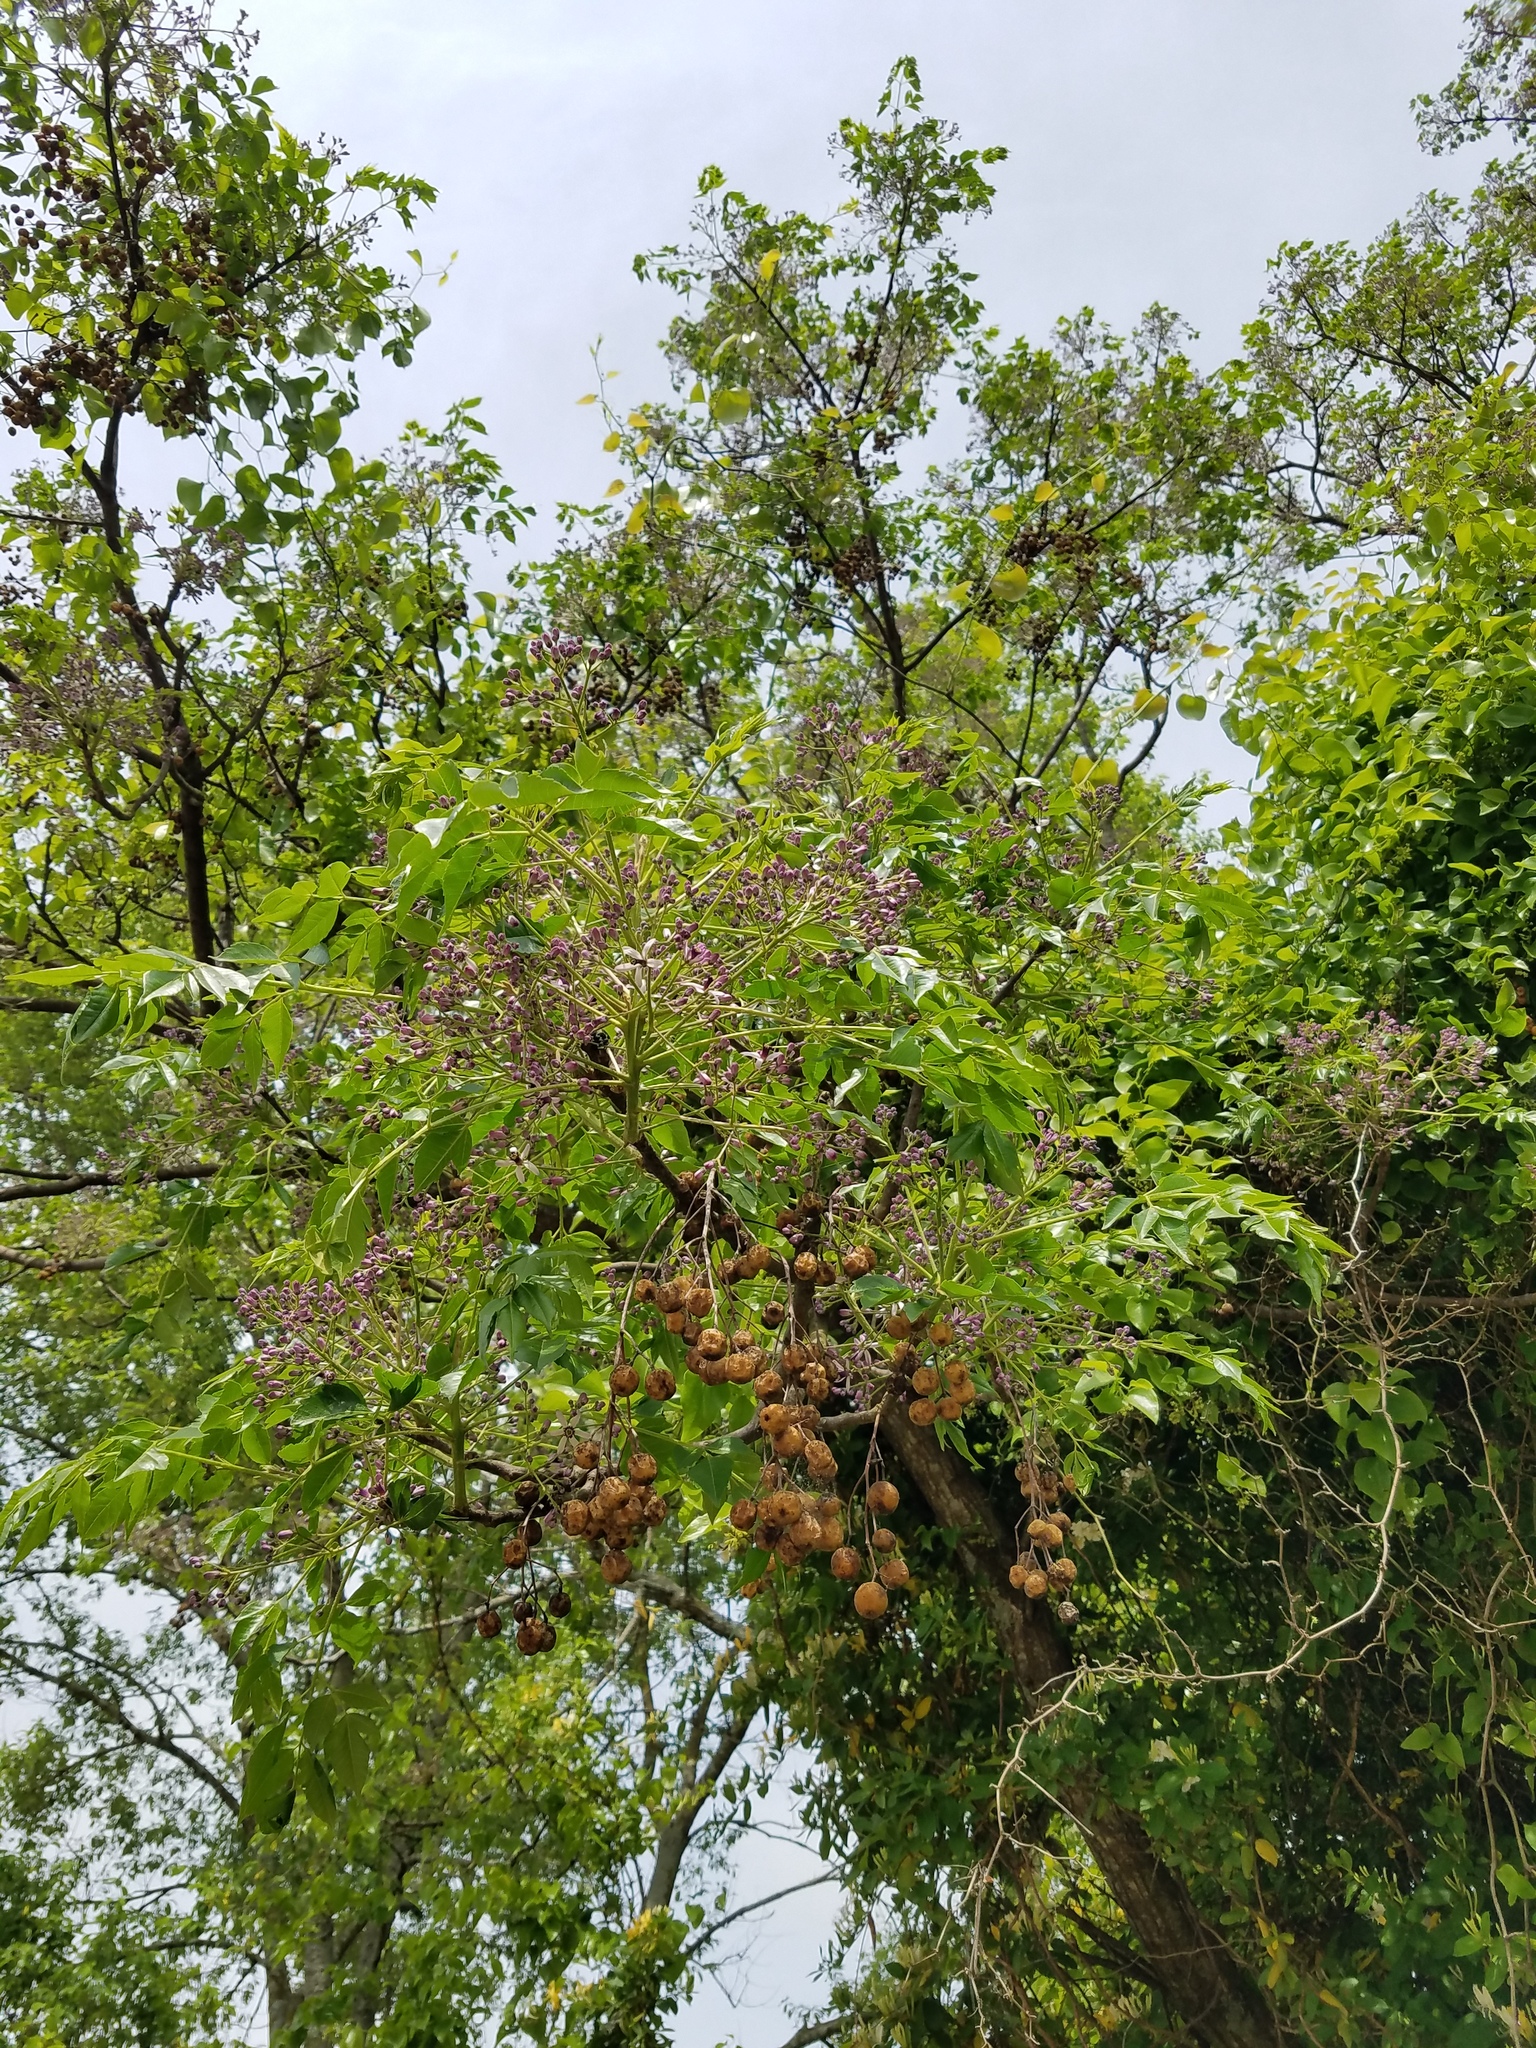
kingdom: Plantae
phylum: Tracheophyta
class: Magnoliopsida
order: Sapindales
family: Meliaceae
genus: Melia
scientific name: Melia azedarach
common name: Chinaberrytree
